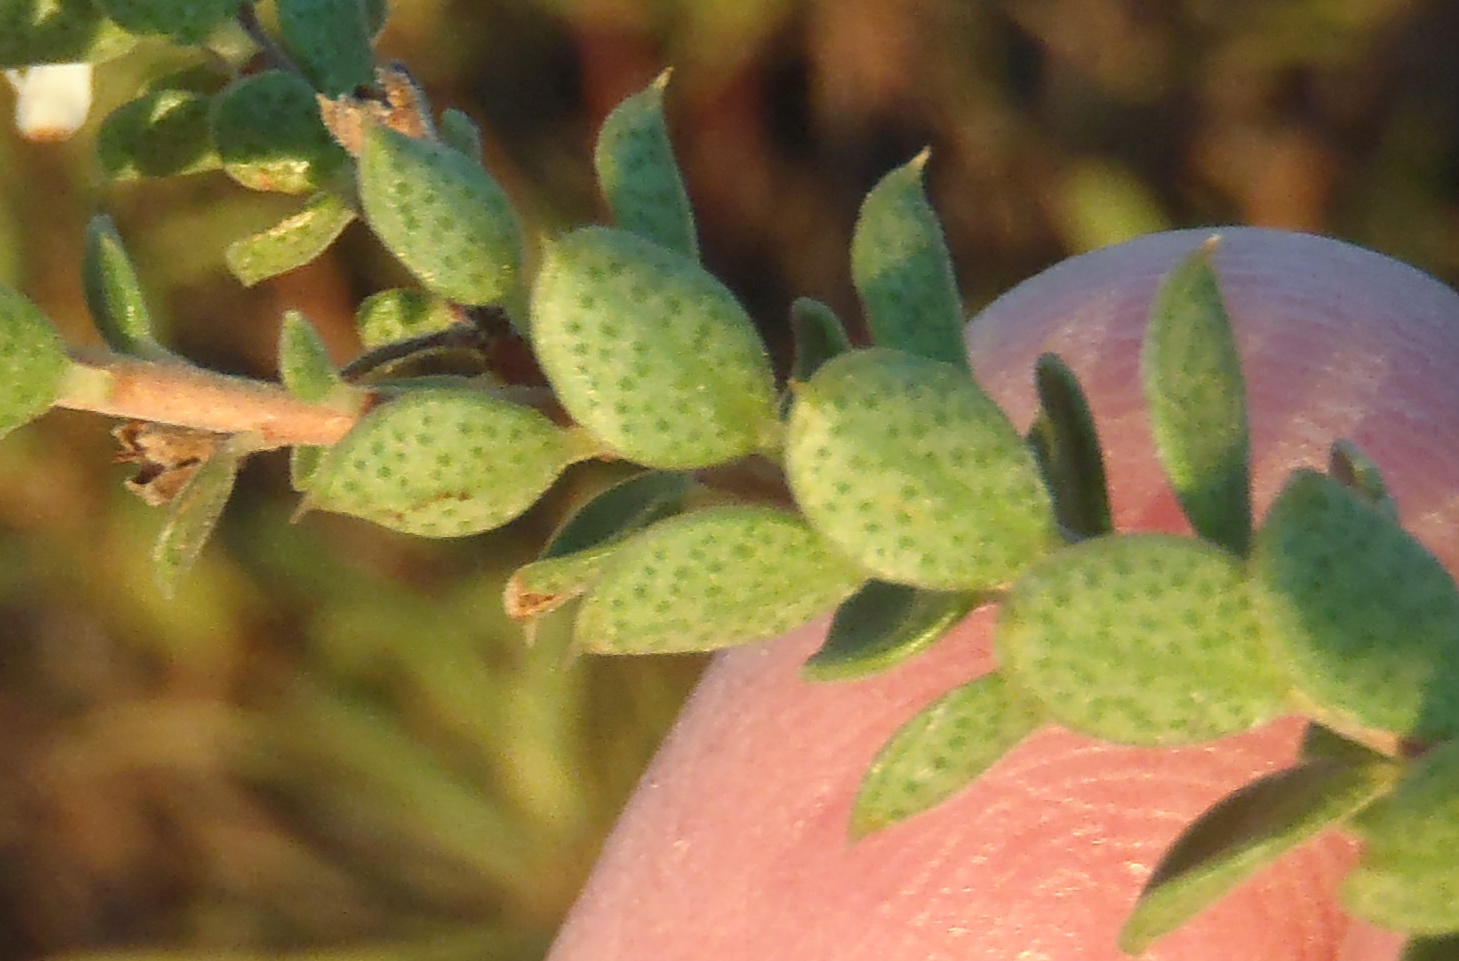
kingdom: Plantae
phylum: Tracheophyta
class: Magnoliopsida
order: Sapindales
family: Rutaceae
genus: Agathosma
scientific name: Agathosma recurvifolia
